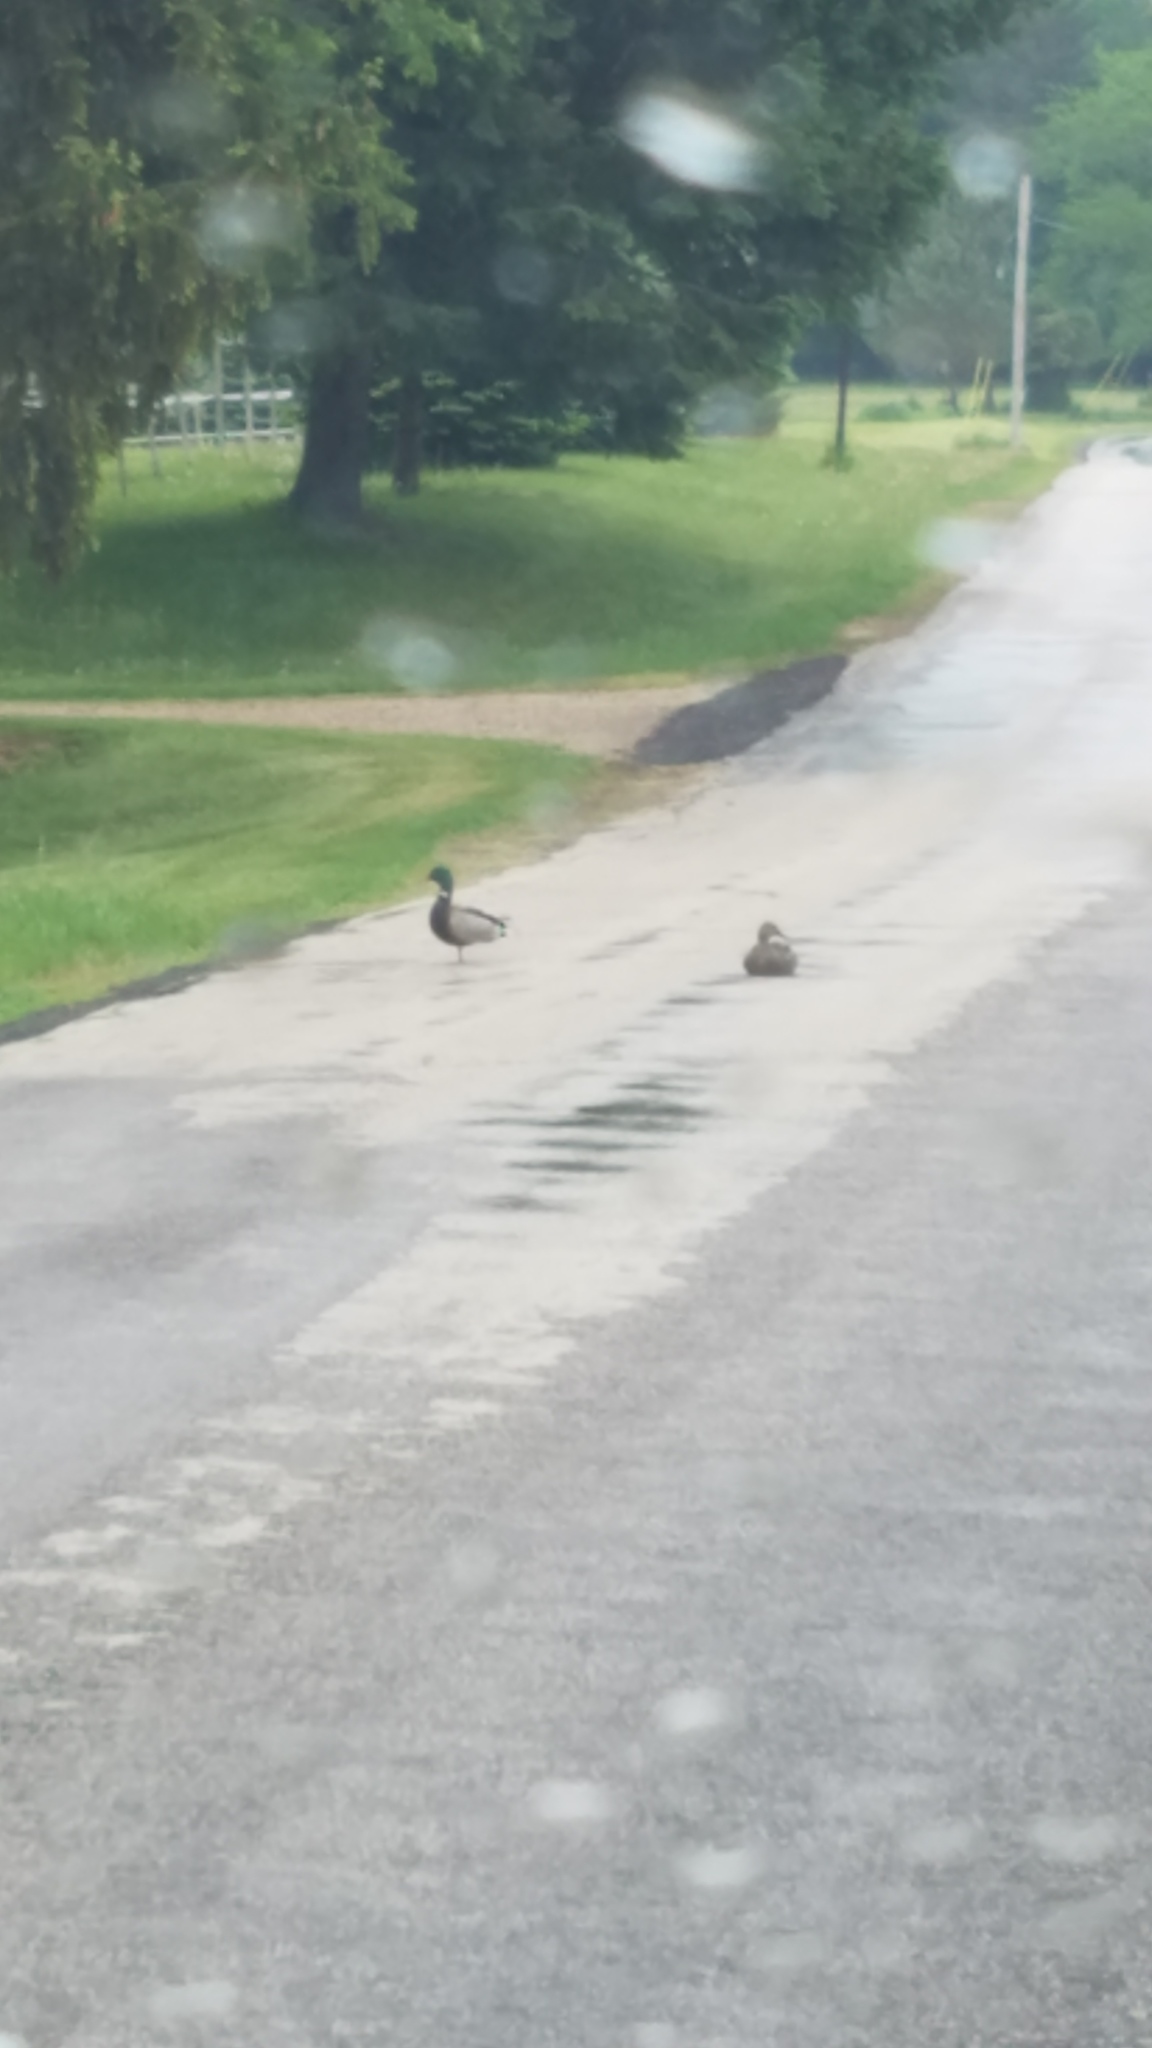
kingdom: Animalia
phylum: Chordata
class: Aves
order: Anseriformes
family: Anatidae
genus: Anas
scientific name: Anas platyrhynchos
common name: Mallard
